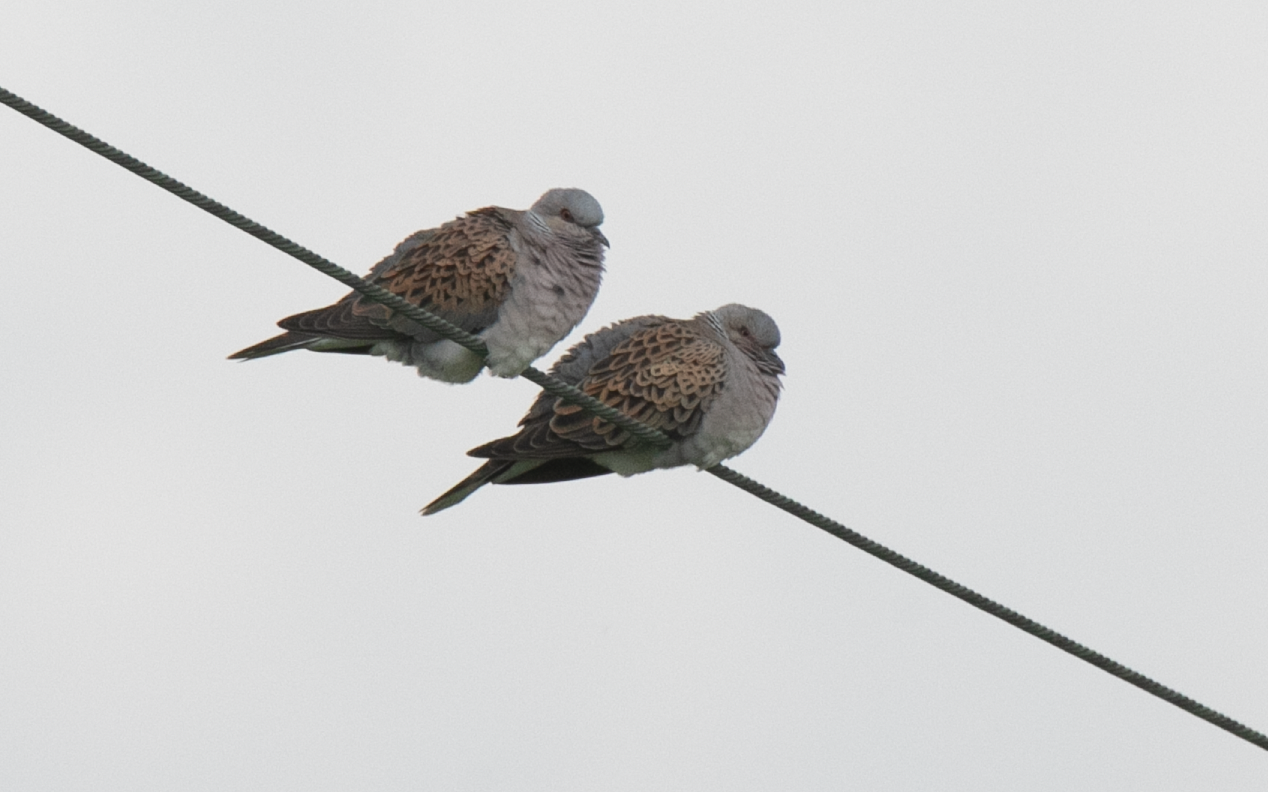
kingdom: Animalia
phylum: Chordata
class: Aves
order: Columbiformes
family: Columbidae
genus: Streptopelia
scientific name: Streptopelia turtur
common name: European turtle dove
